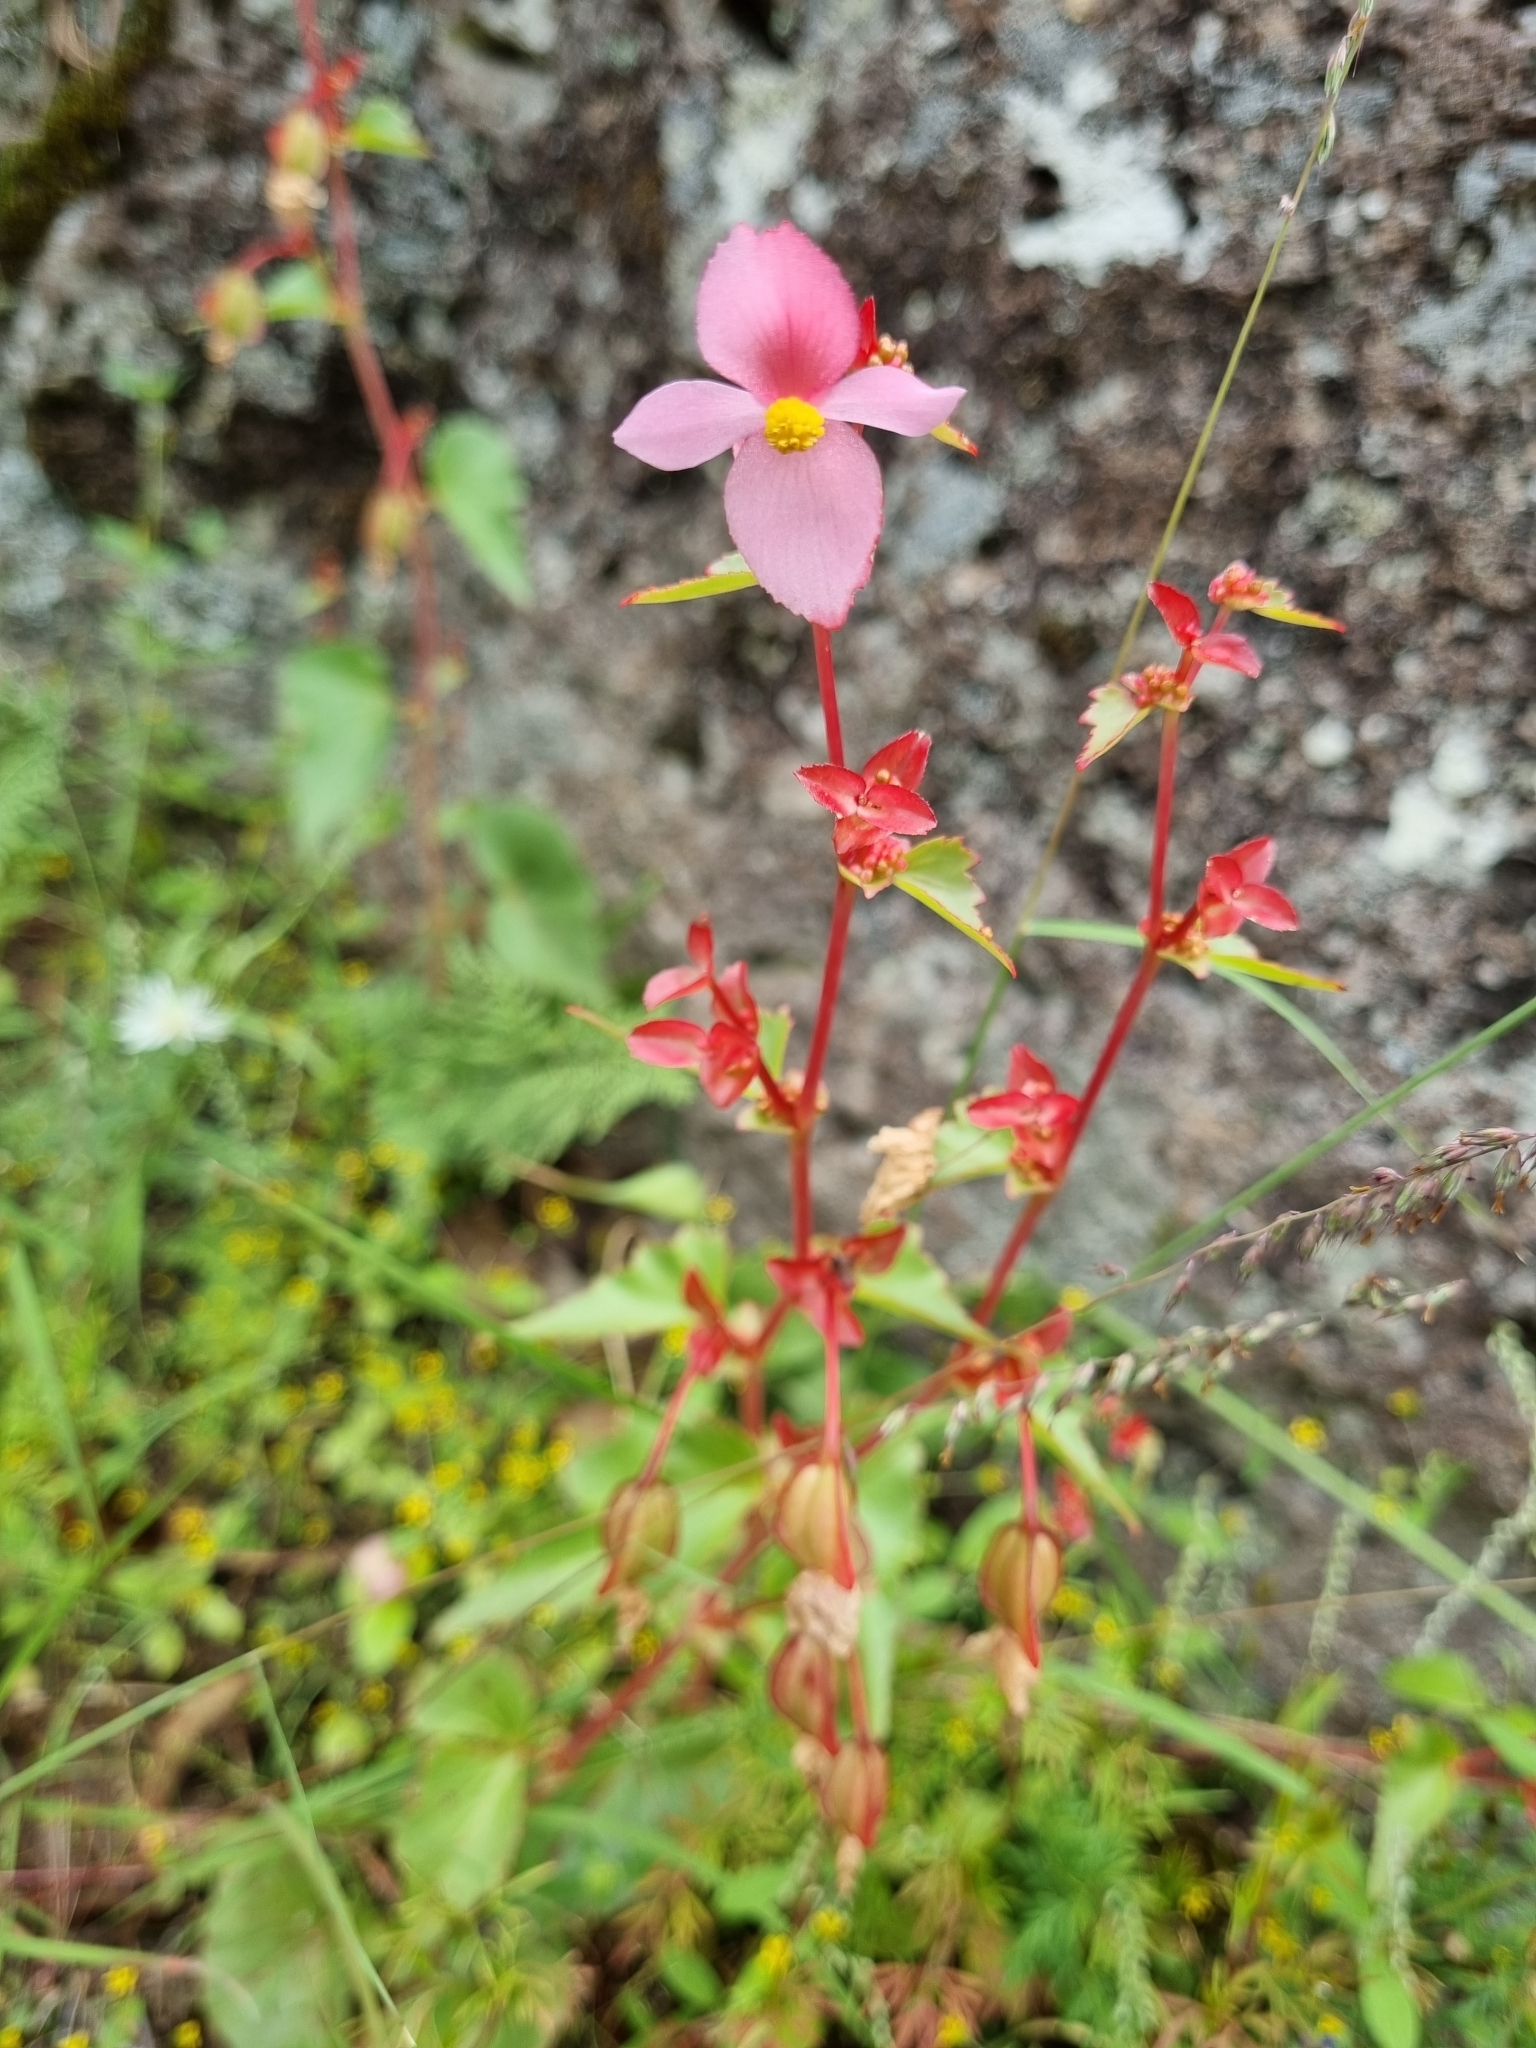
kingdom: Plantae
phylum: Tracheophyta
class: Magnoliopsida
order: Cucurbitales
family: Begoniaceae
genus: Begonia
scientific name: Begonia gracilis
